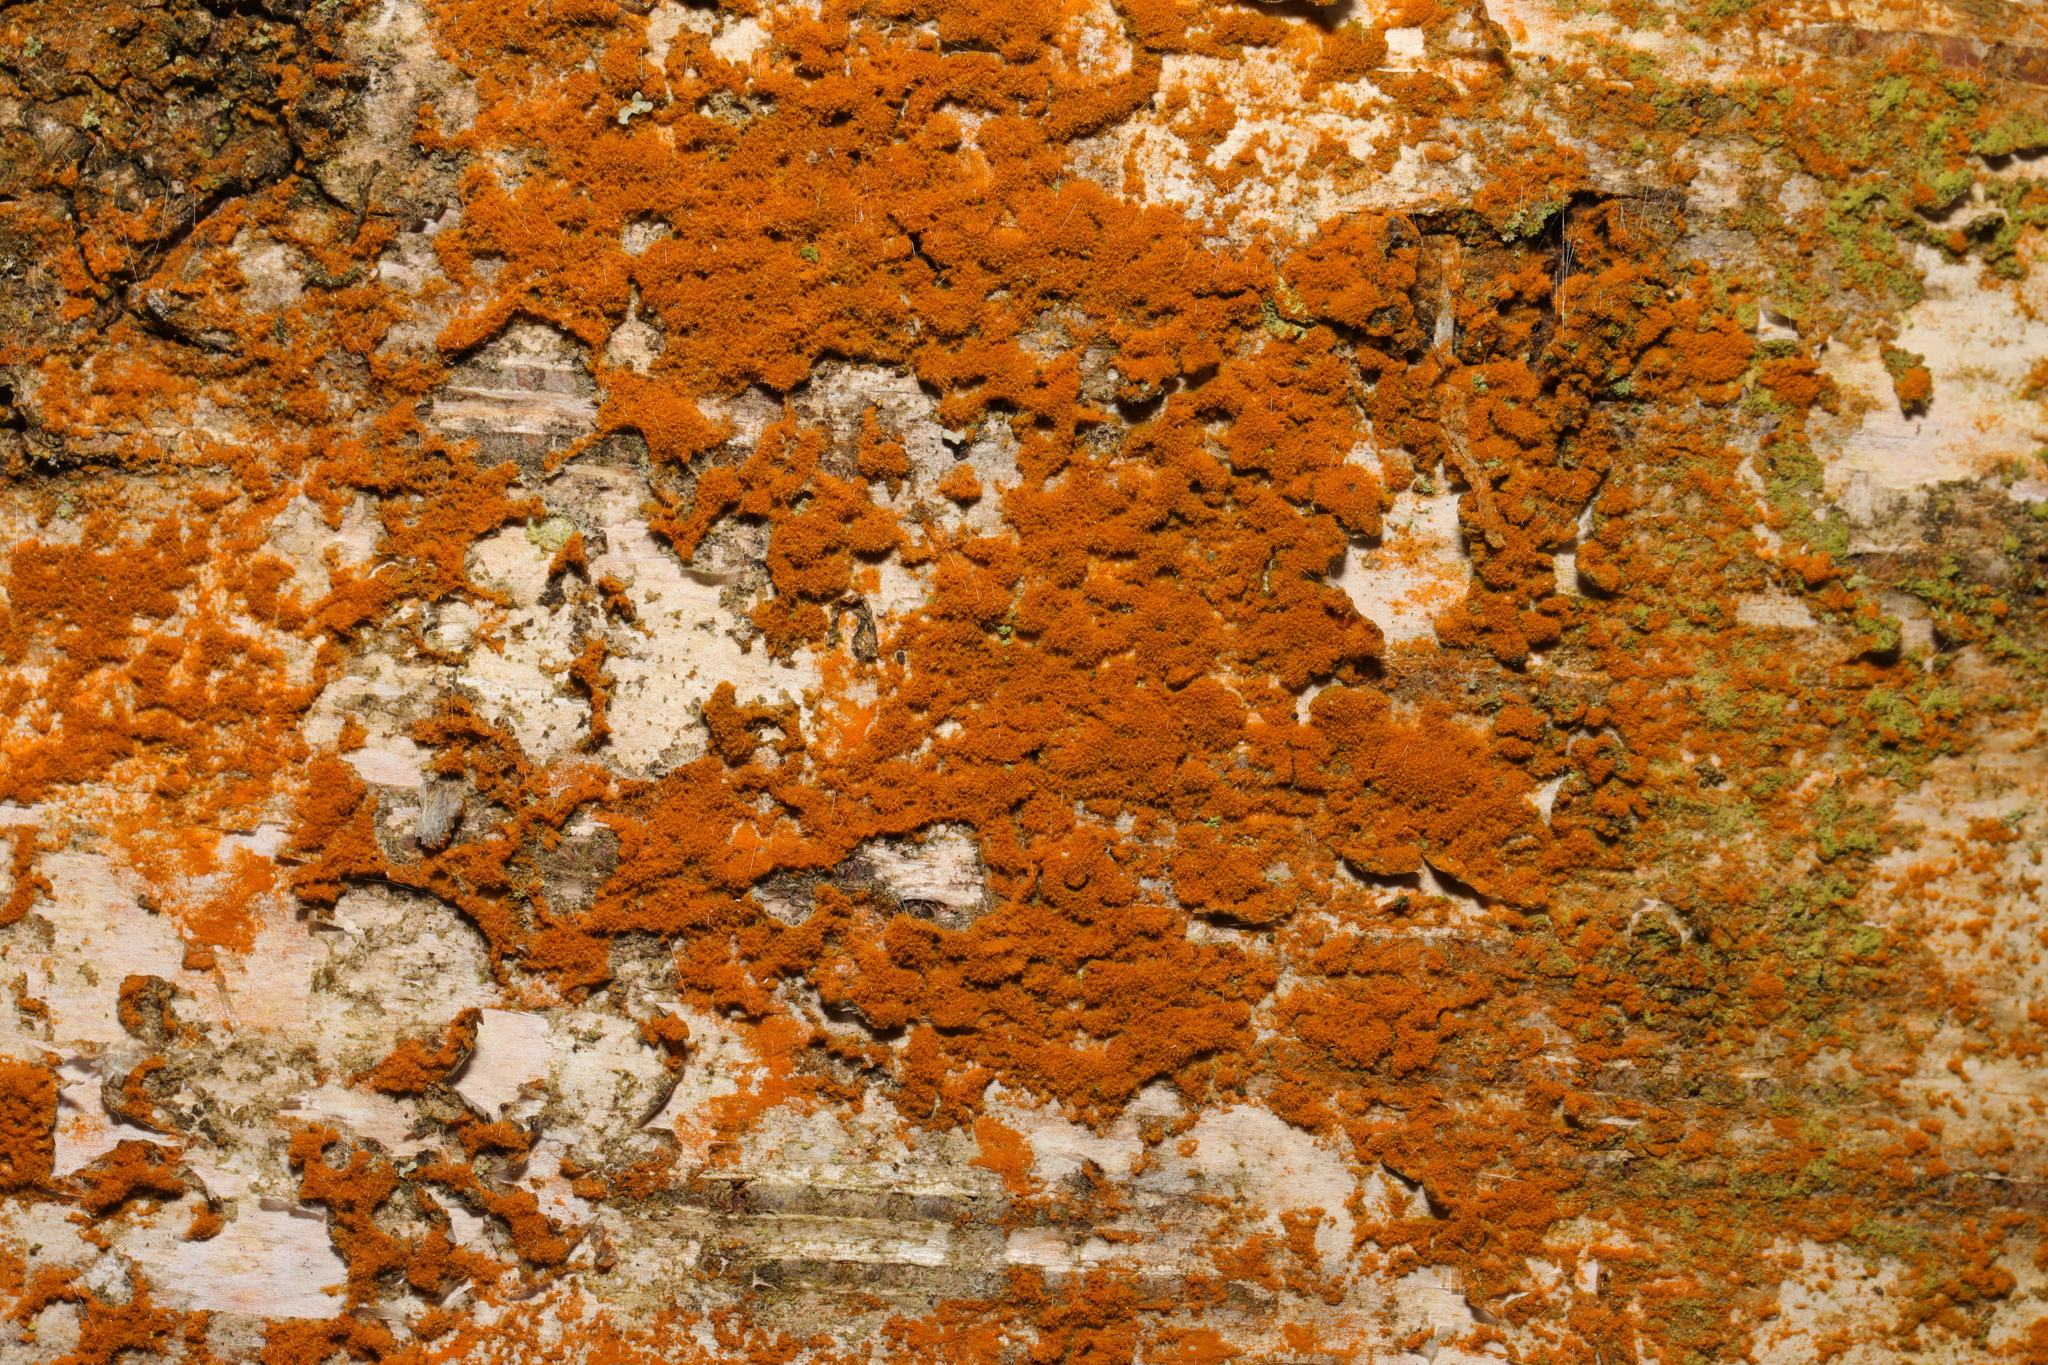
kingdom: Plantae
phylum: Chlorophyta
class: Ulvophyceae
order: Trentepohliales
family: Trentepohliaceae
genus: Trentepohlia
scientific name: Trentepohlia
